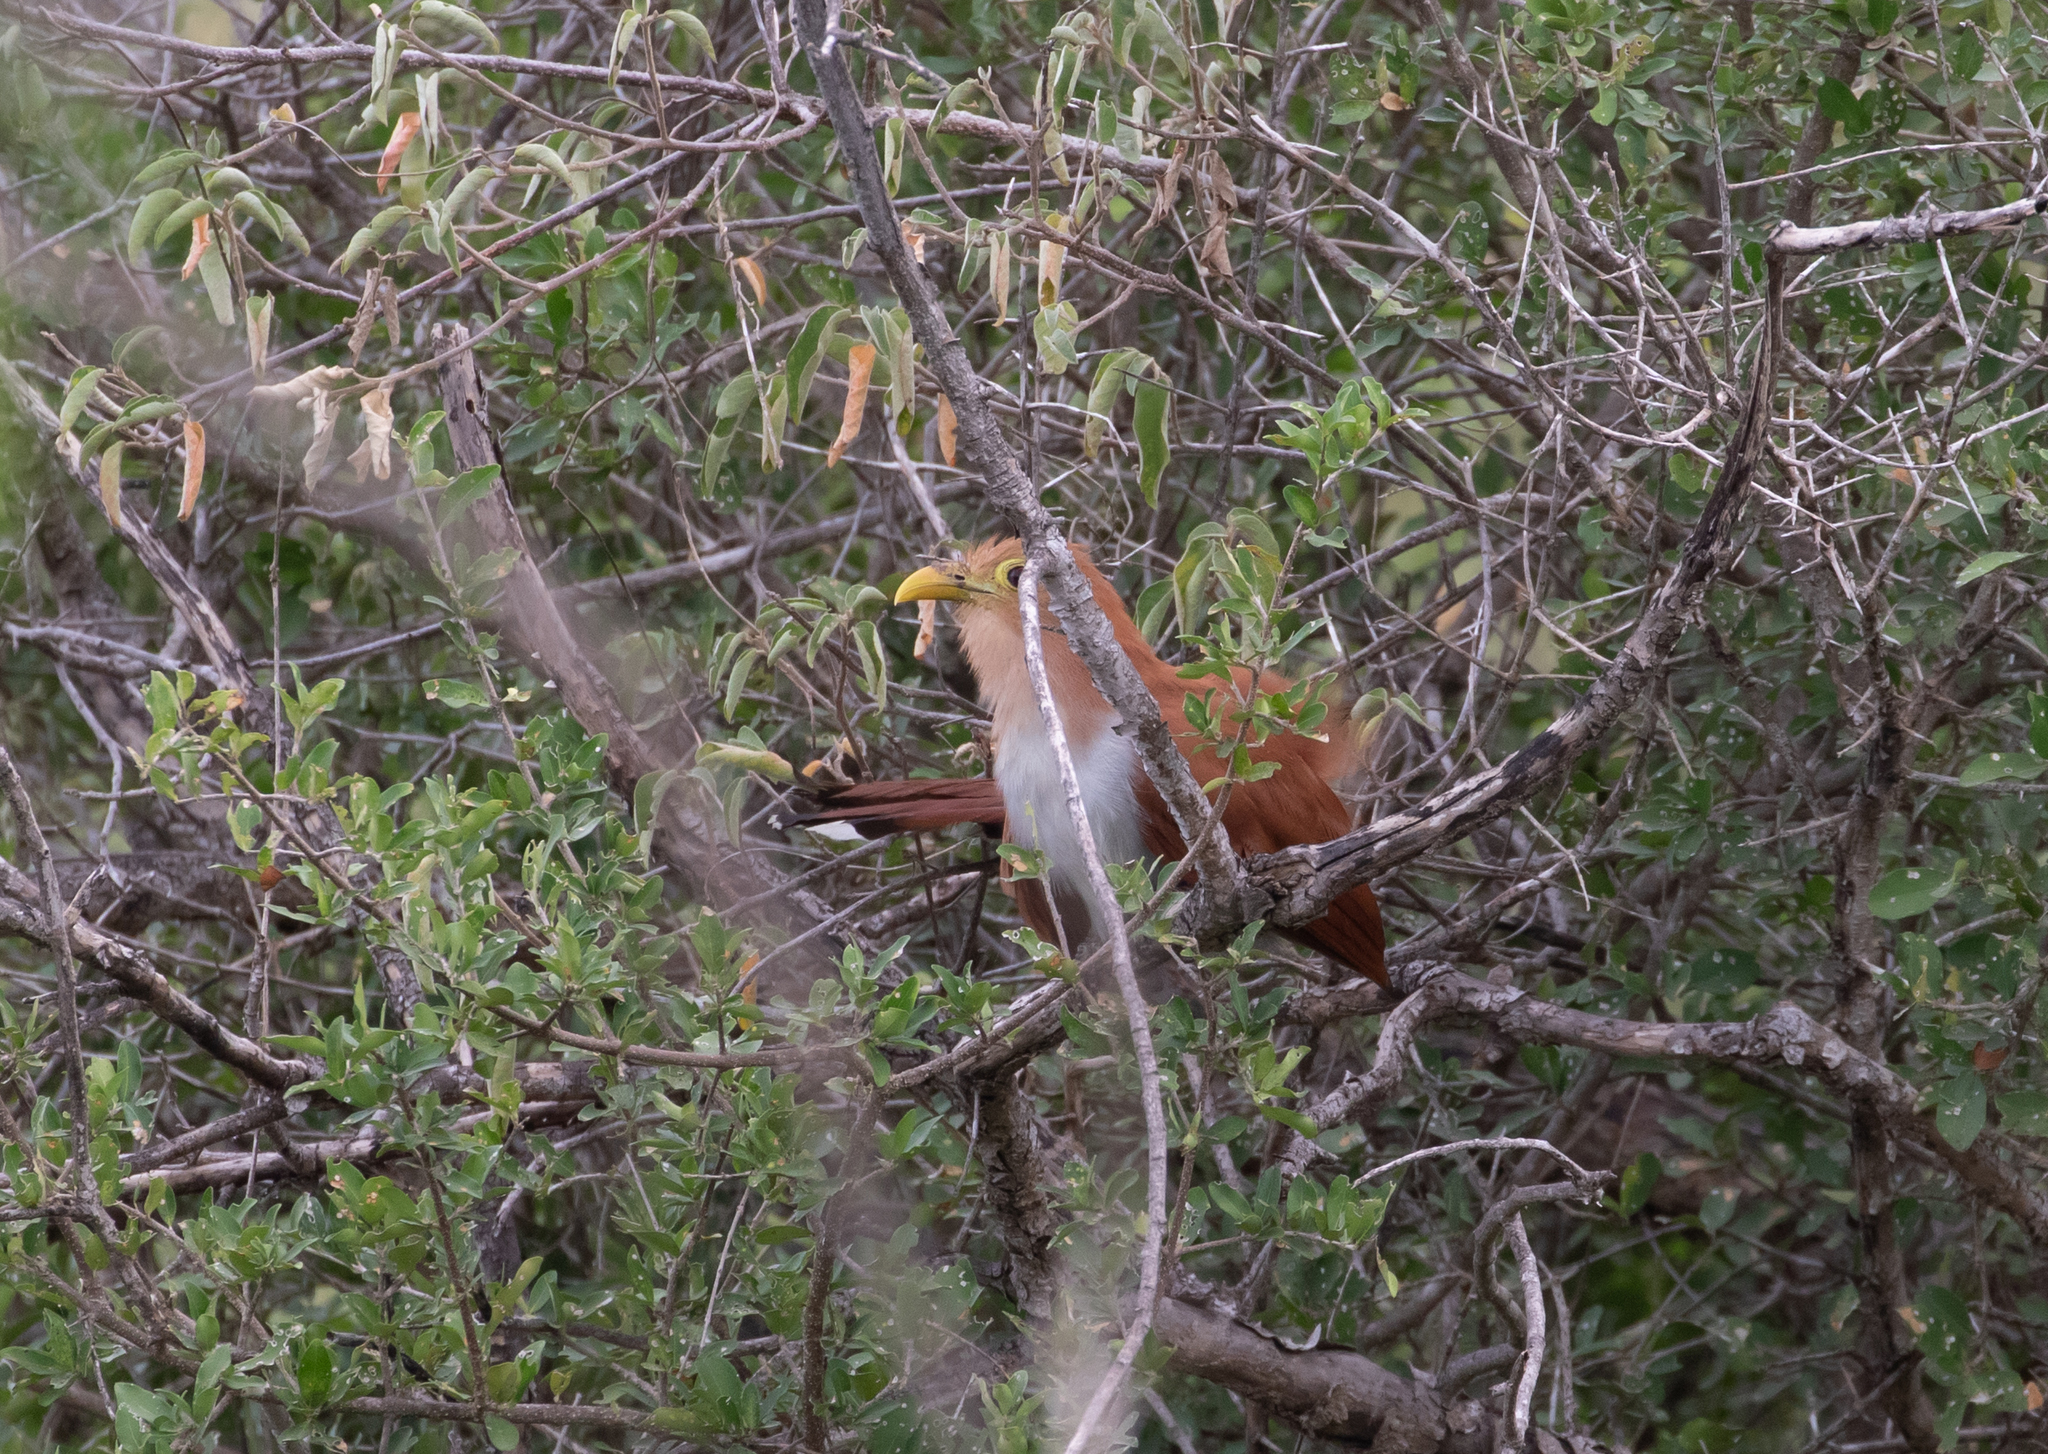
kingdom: Animalia
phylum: Chordata
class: Aves
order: Cuculiformes
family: Cuculidae
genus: Piaya
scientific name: Piaya cayana
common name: Squirrel cuckoo
